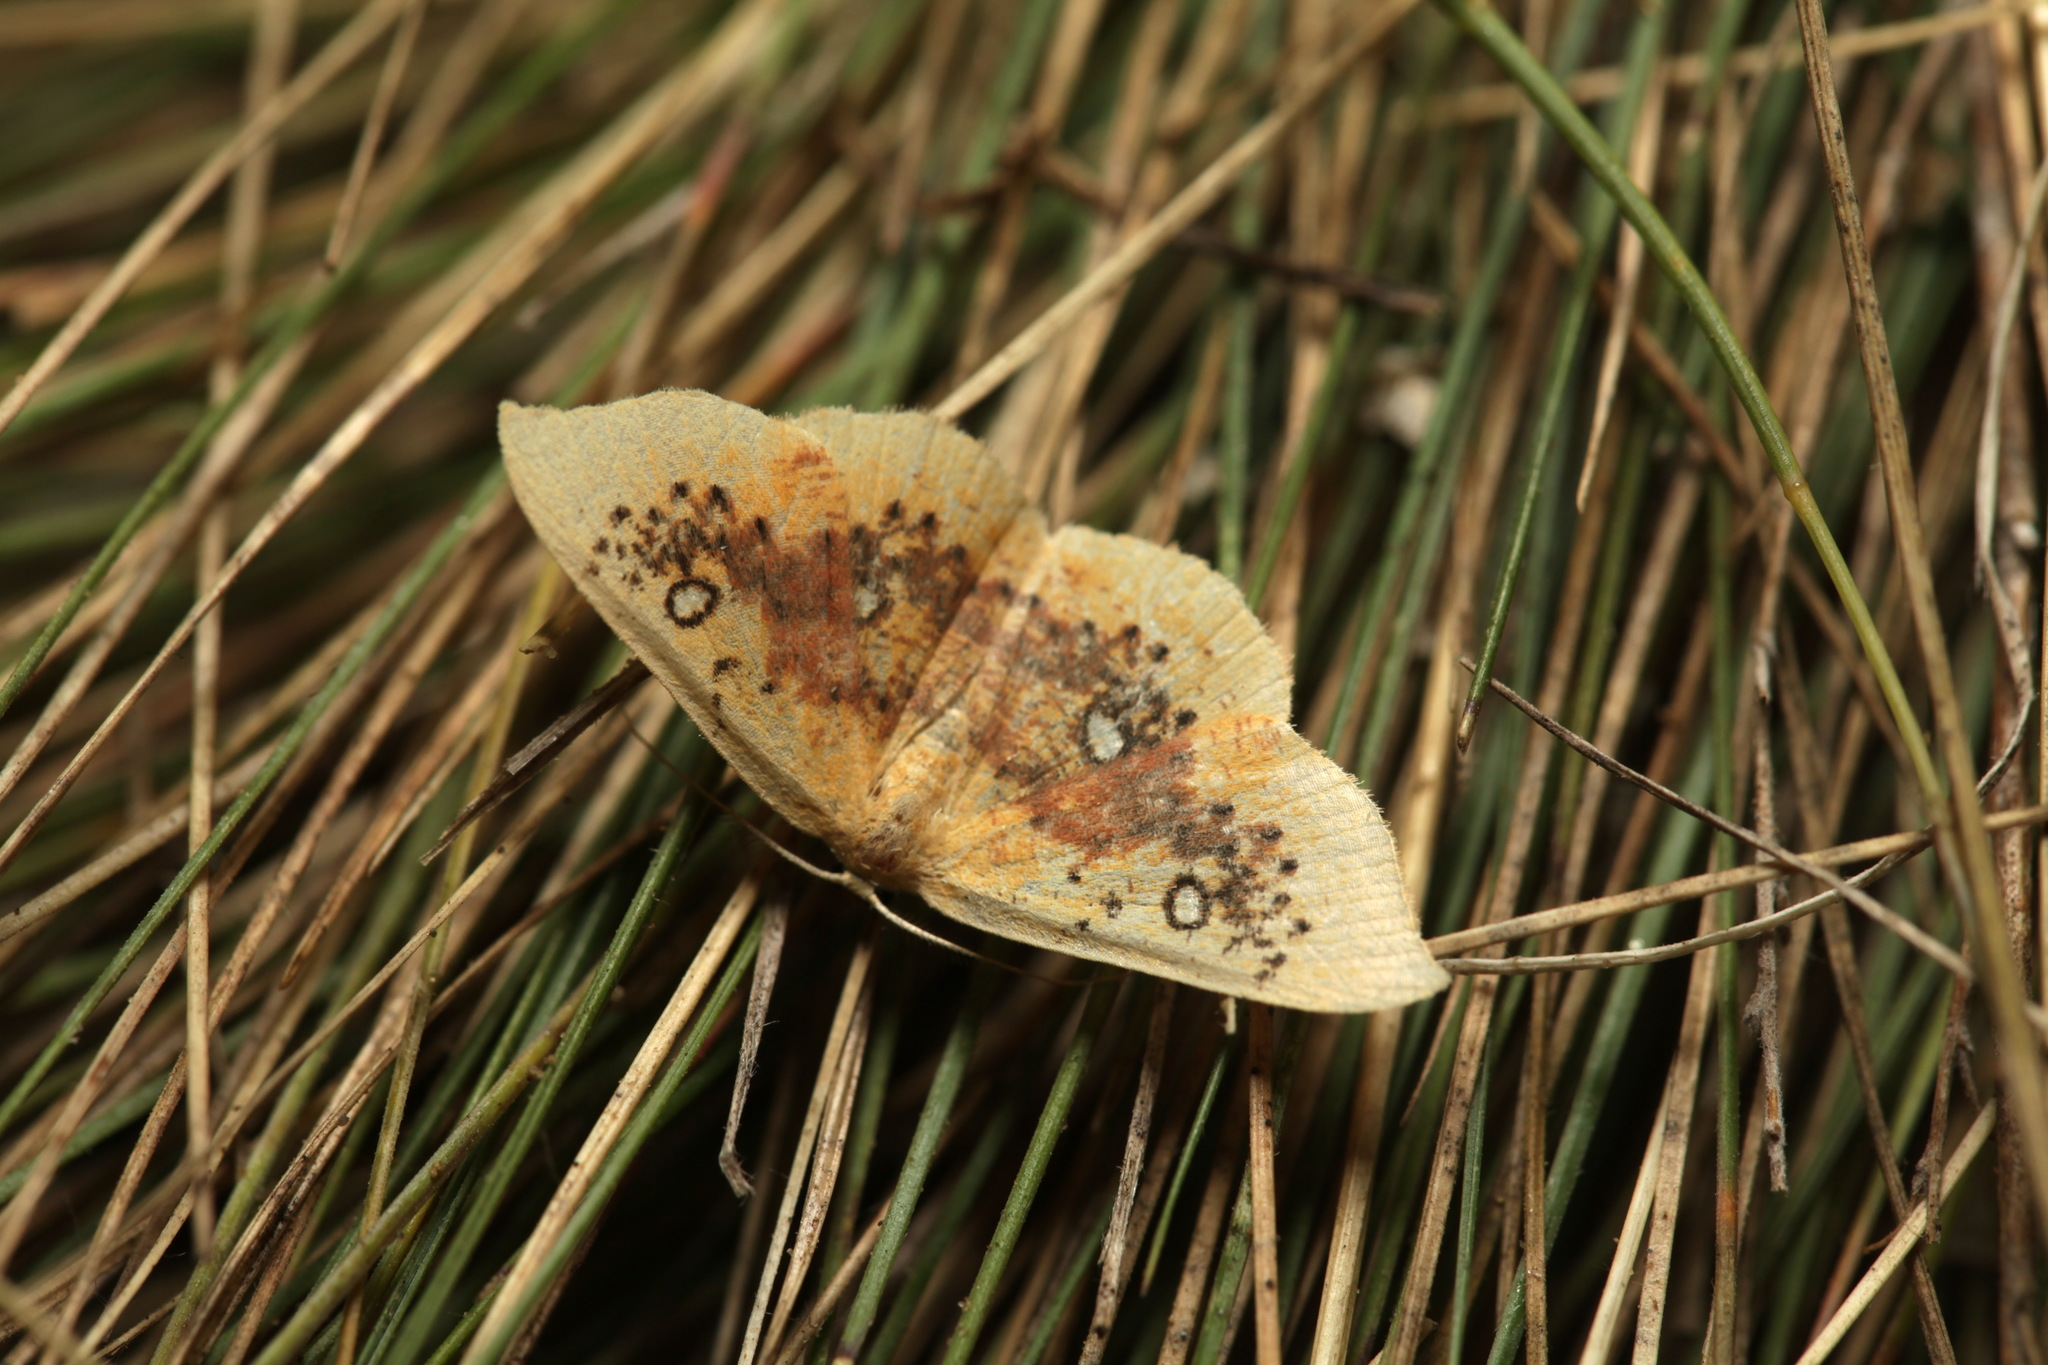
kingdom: Animalia
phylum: Arthropoda
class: Insecta
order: Lepidoptera
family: Geometridae
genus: Cyclophora
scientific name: Cyclophora albiocellaria
